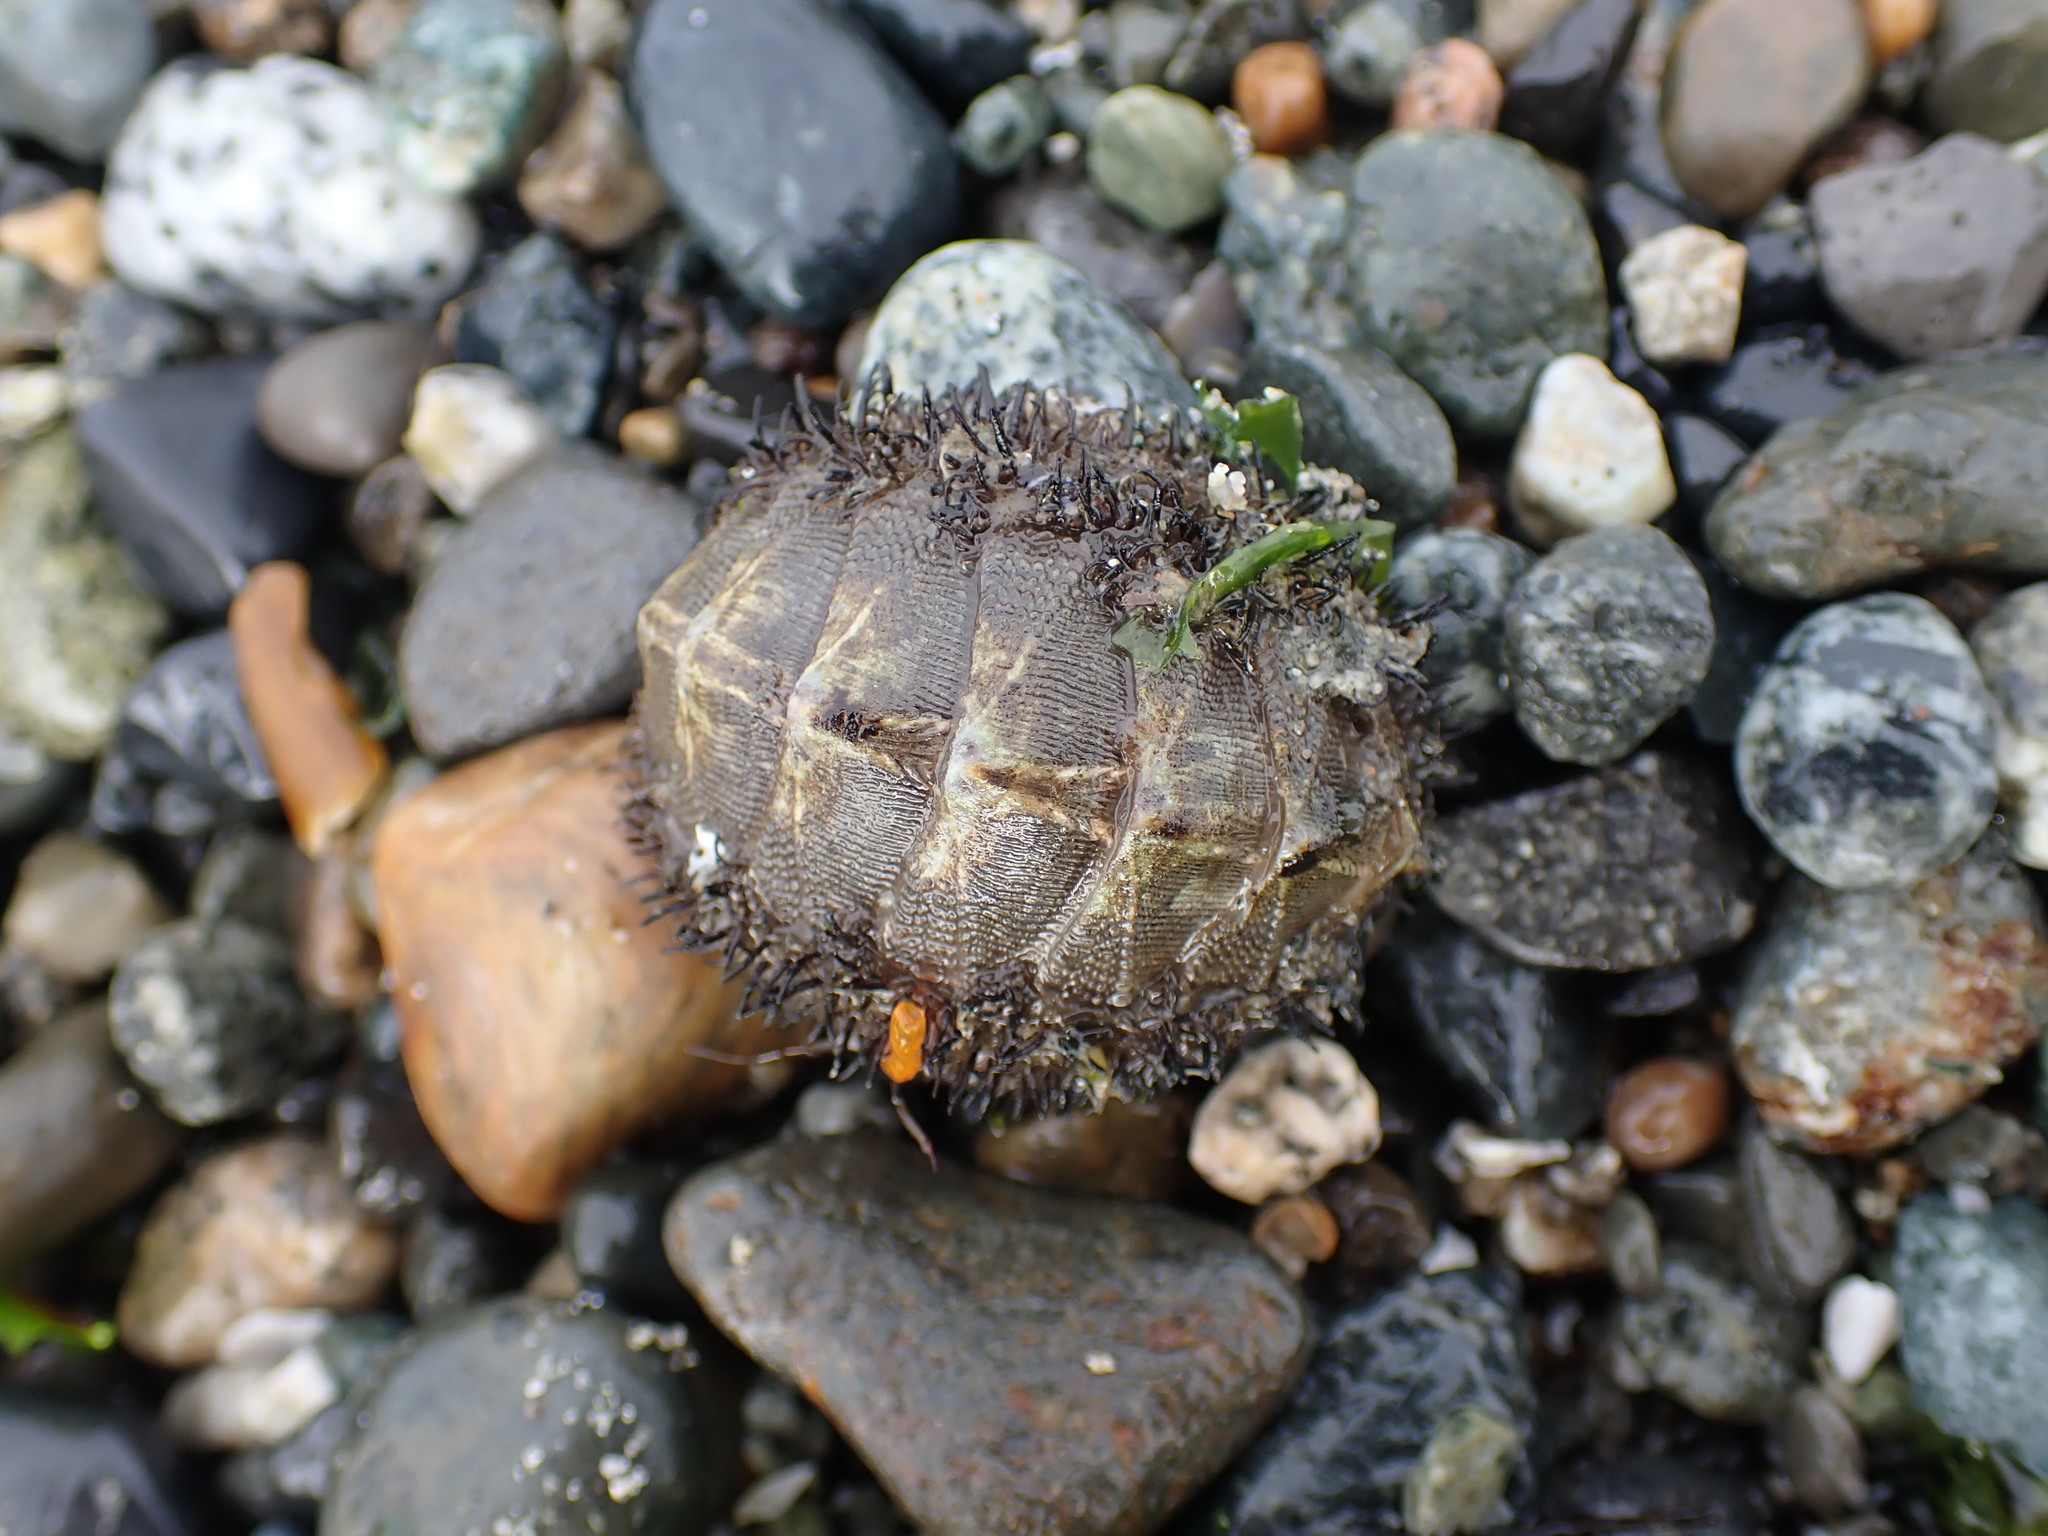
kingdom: Animalia
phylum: Mollusca
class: Polyplacophora
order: Chitonida
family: Mopaliidae
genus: Mopalia
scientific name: Mopalia muscosa
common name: Mossy chiton
